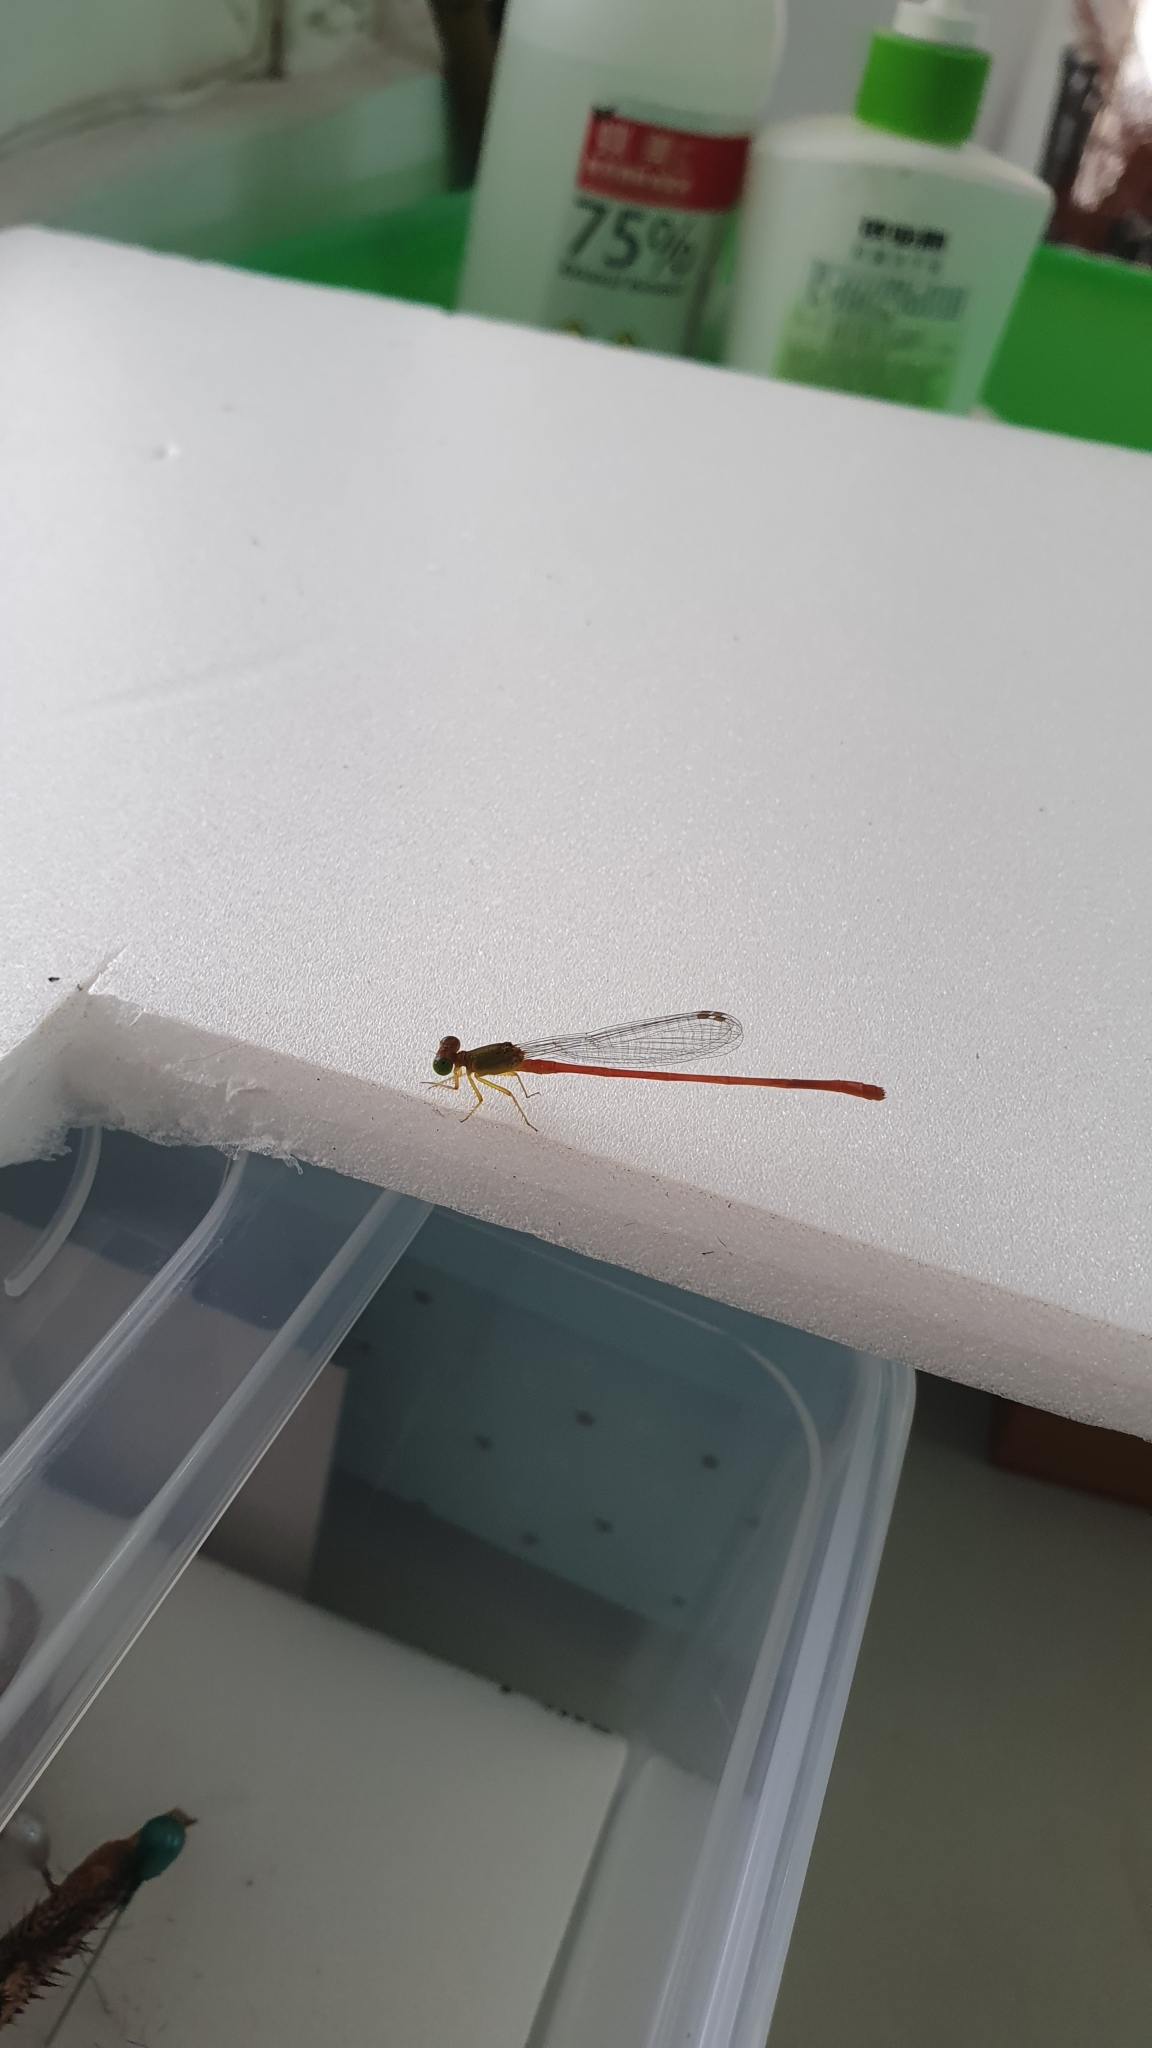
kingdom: Animalia
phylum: Arthropoda
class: Insecta
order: Odonata
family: Coenagrionidae
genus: Ceriagrion
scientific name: Ceriagrion auranticum
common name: Orange-tailed sprite
